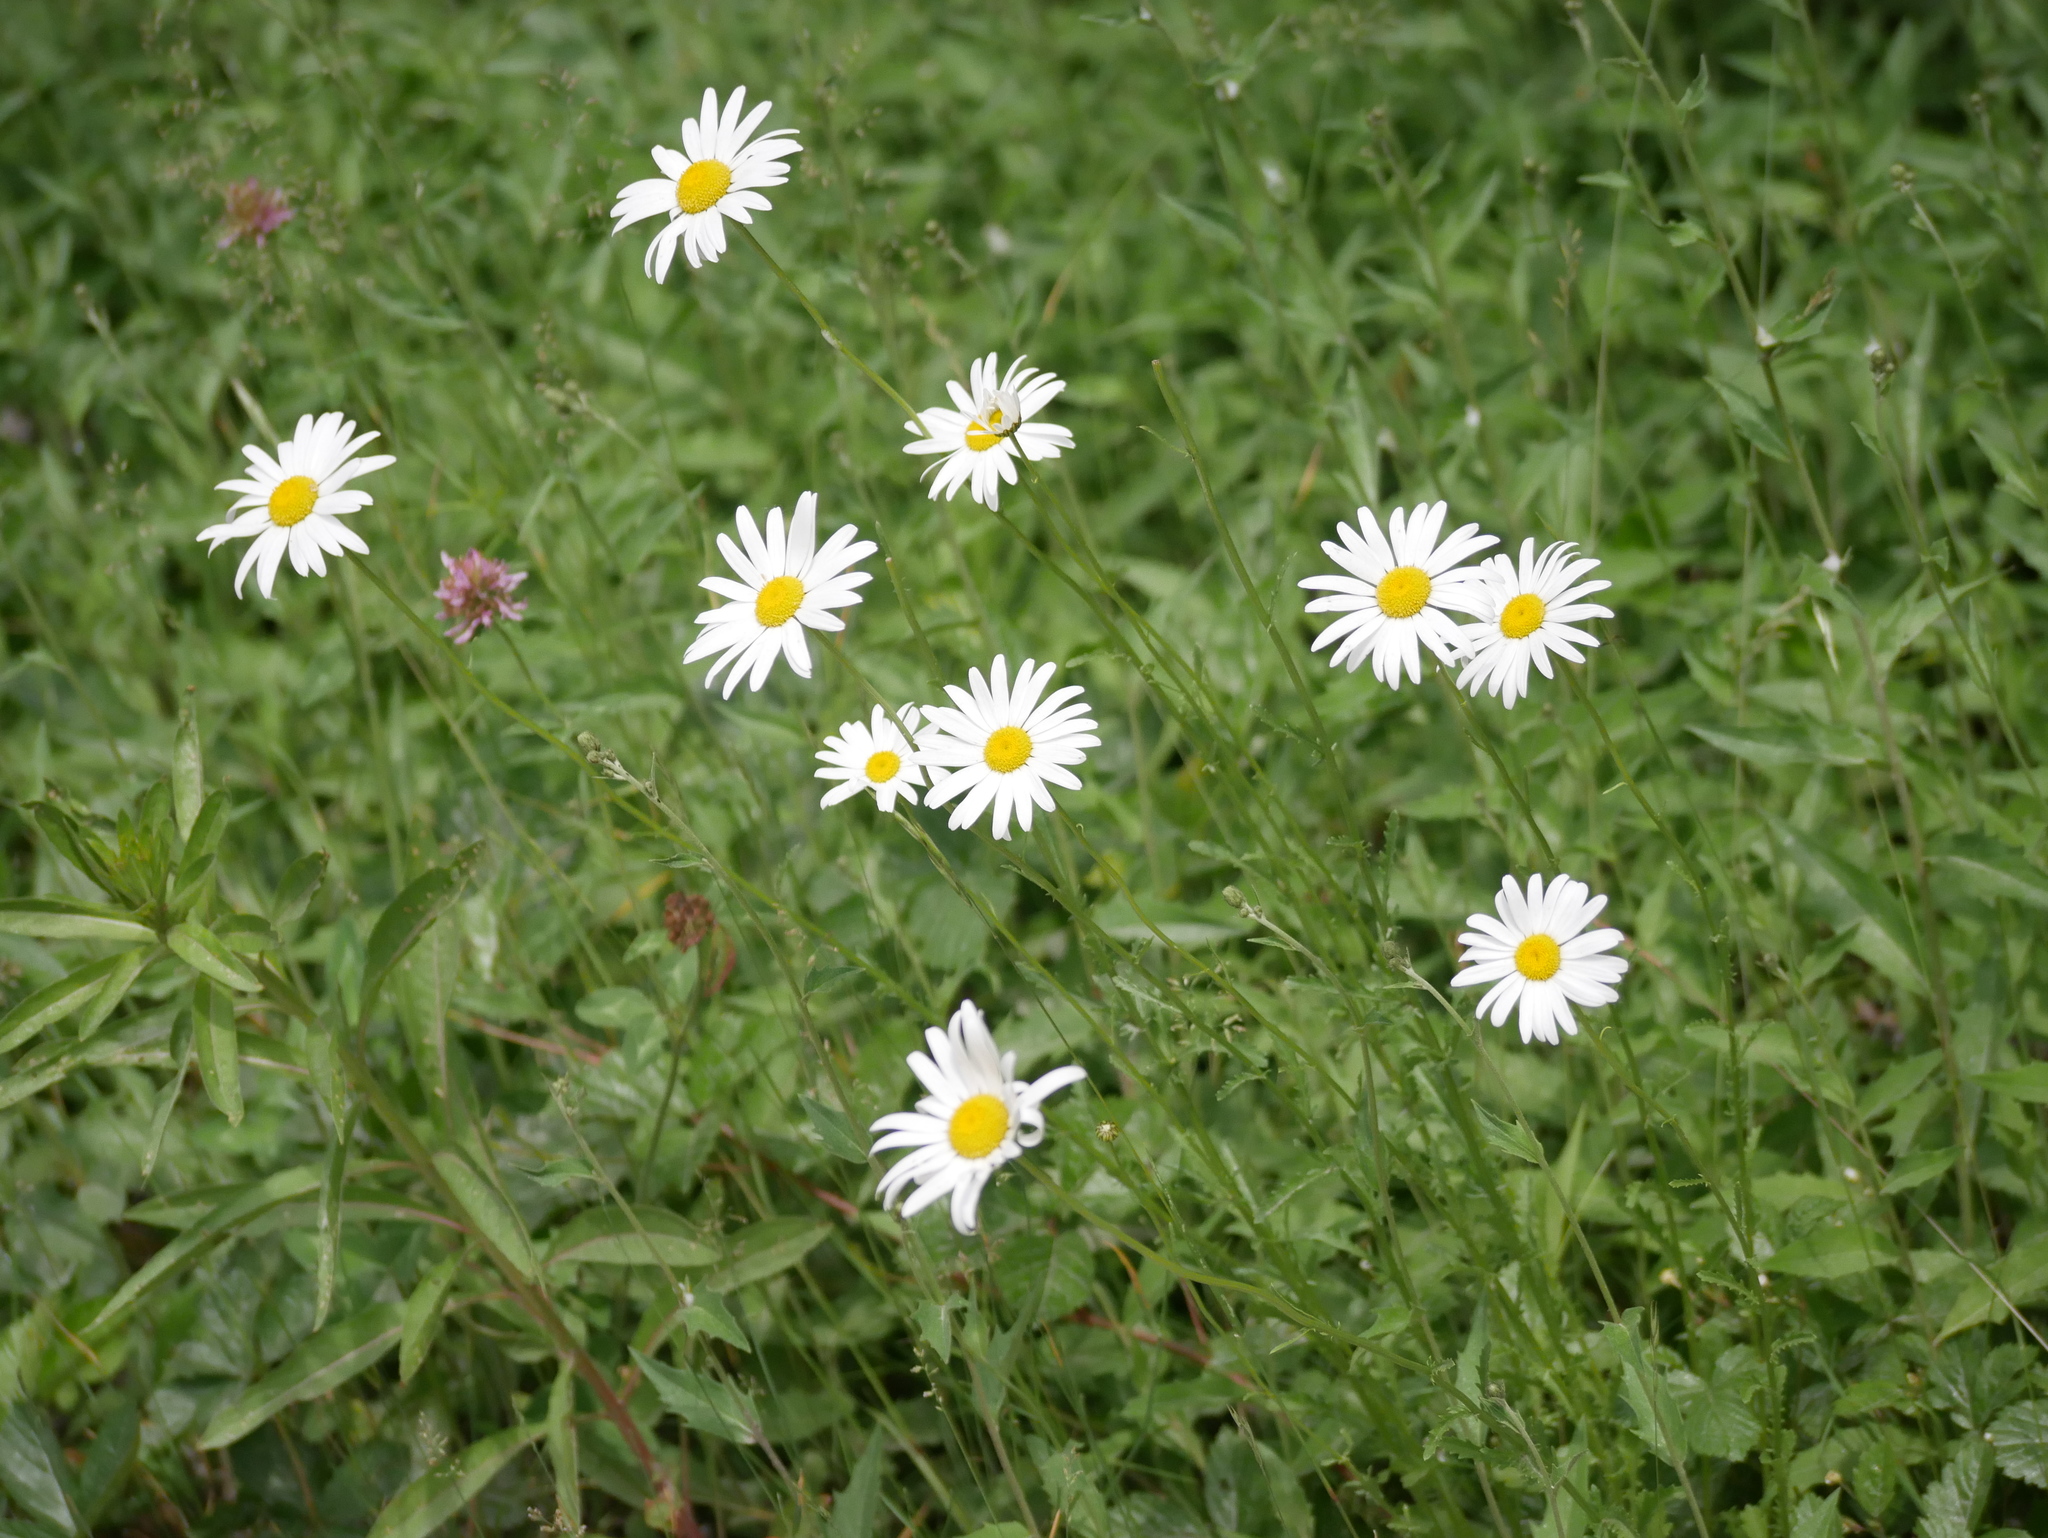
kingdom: Plantae
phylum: Tracheophyta
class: Magnoliopsida
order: Asterales
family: Asteraceae
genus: Leucanthemum
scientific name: Leucanthemum vulgare
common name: Oxeye daisy
